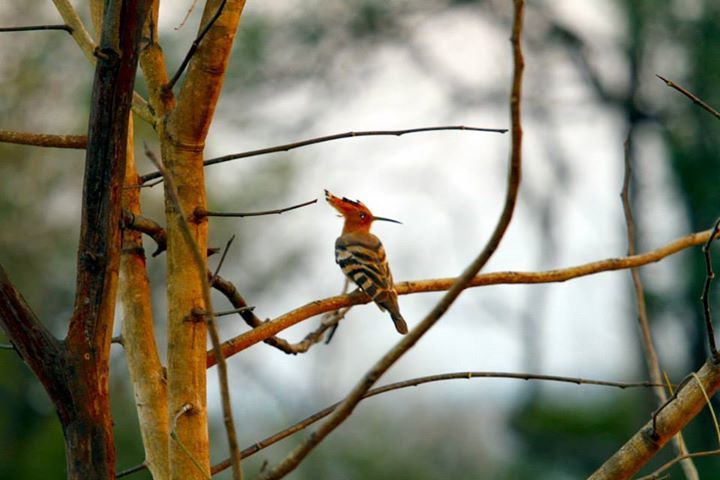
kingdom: Animalia
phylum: Chordata
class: Aves
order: Bucerotiformes
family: Upupidae
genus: Upupa
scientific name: Upupa epops
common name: Eurasian hoopoe
